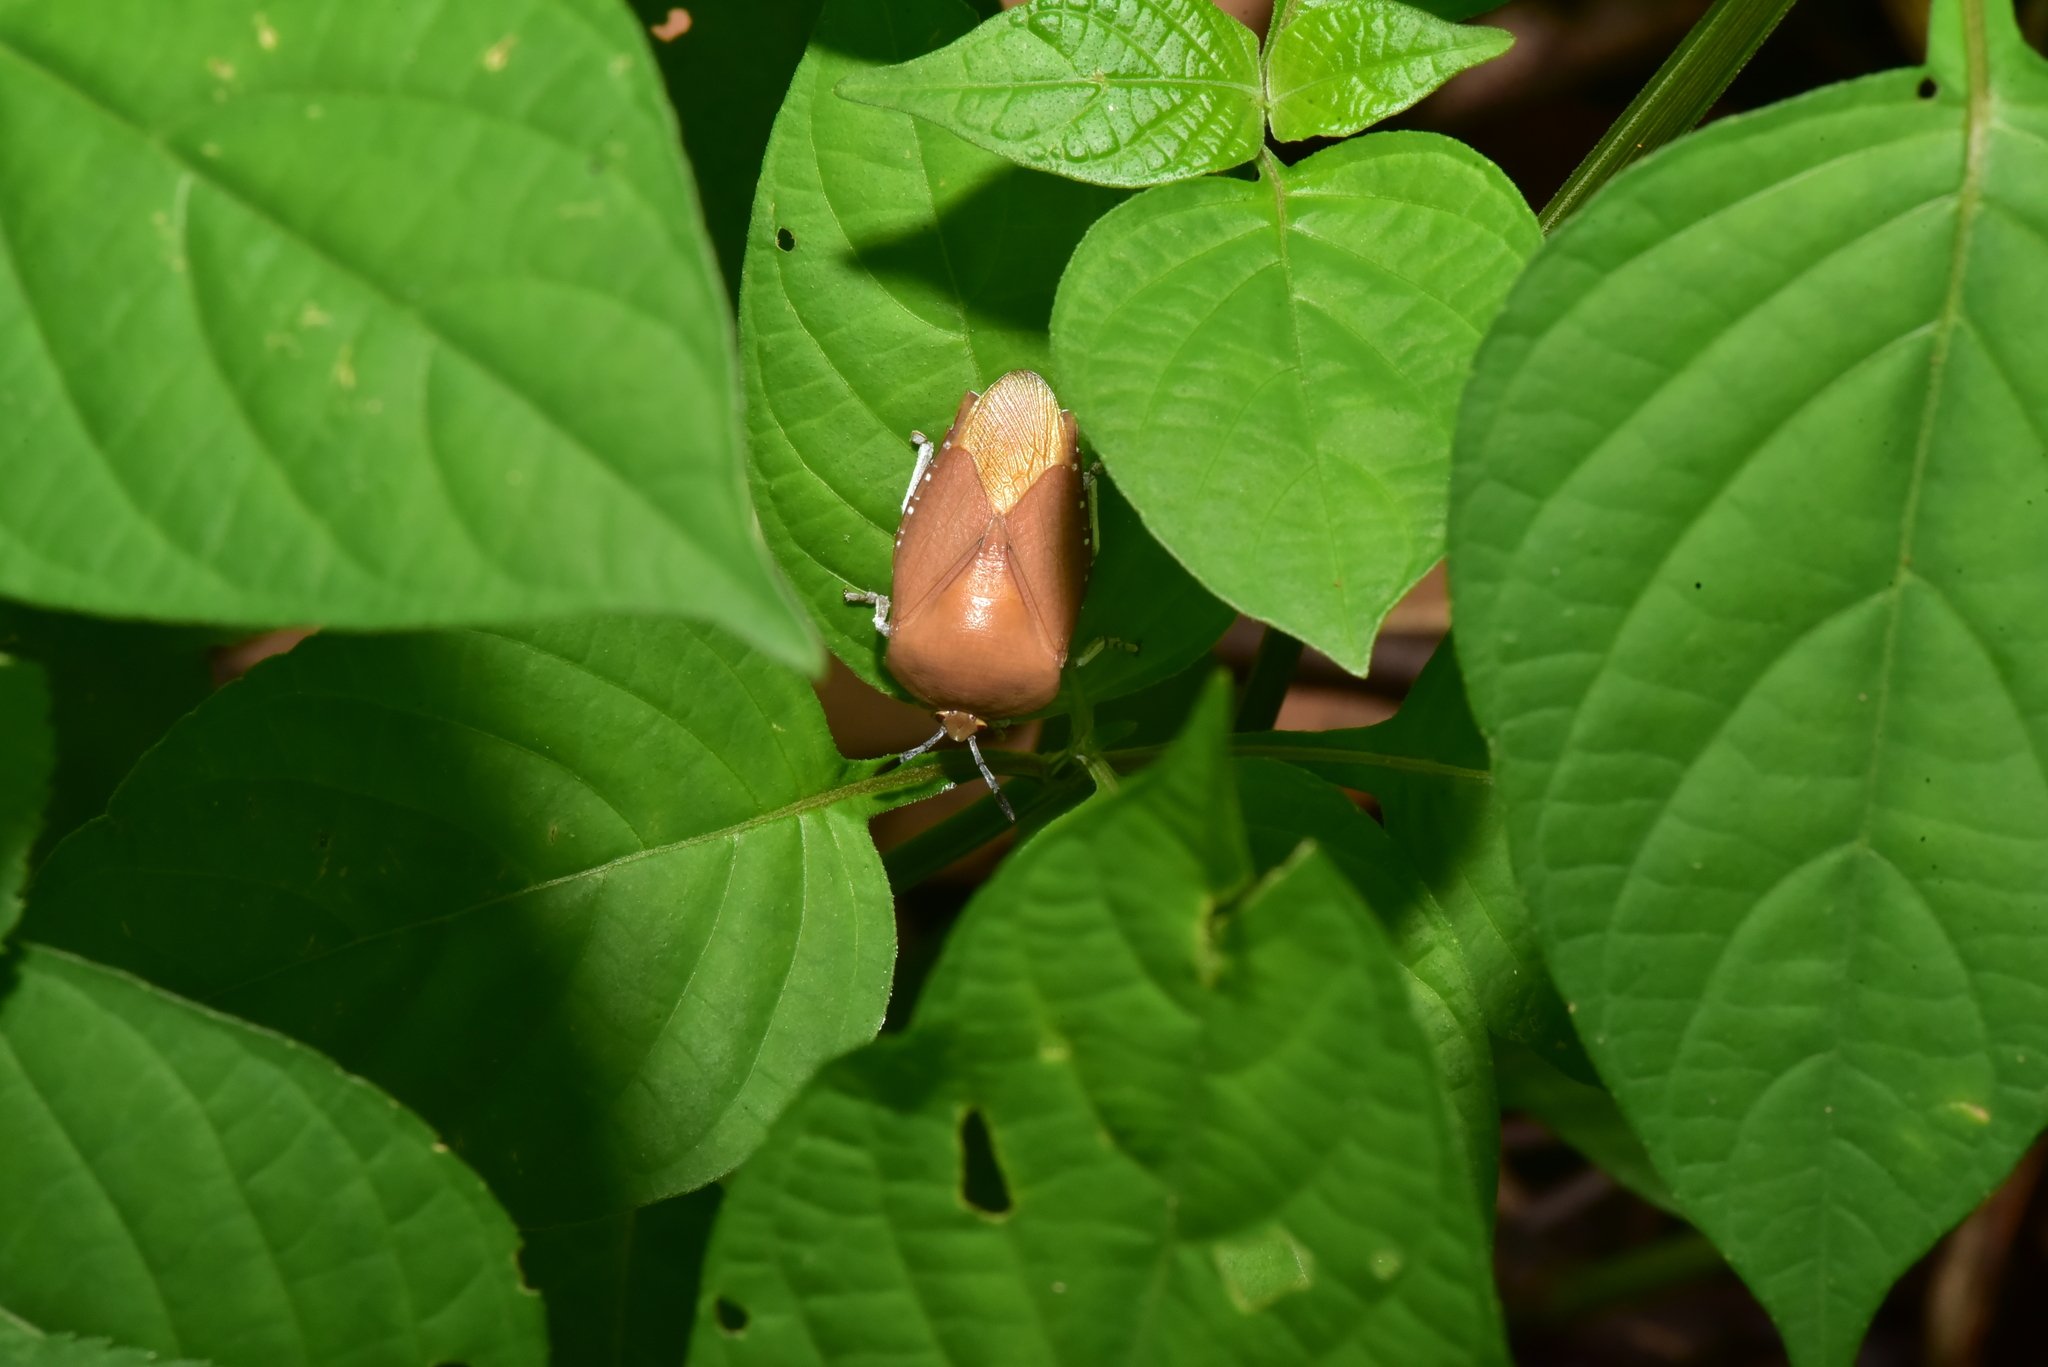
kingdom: Animalia
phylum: Arthropoda
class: Insecta
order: Hemiptera
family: Tessaratomidae
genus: Tessaratoma
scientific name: Tessaratoma papillosa
